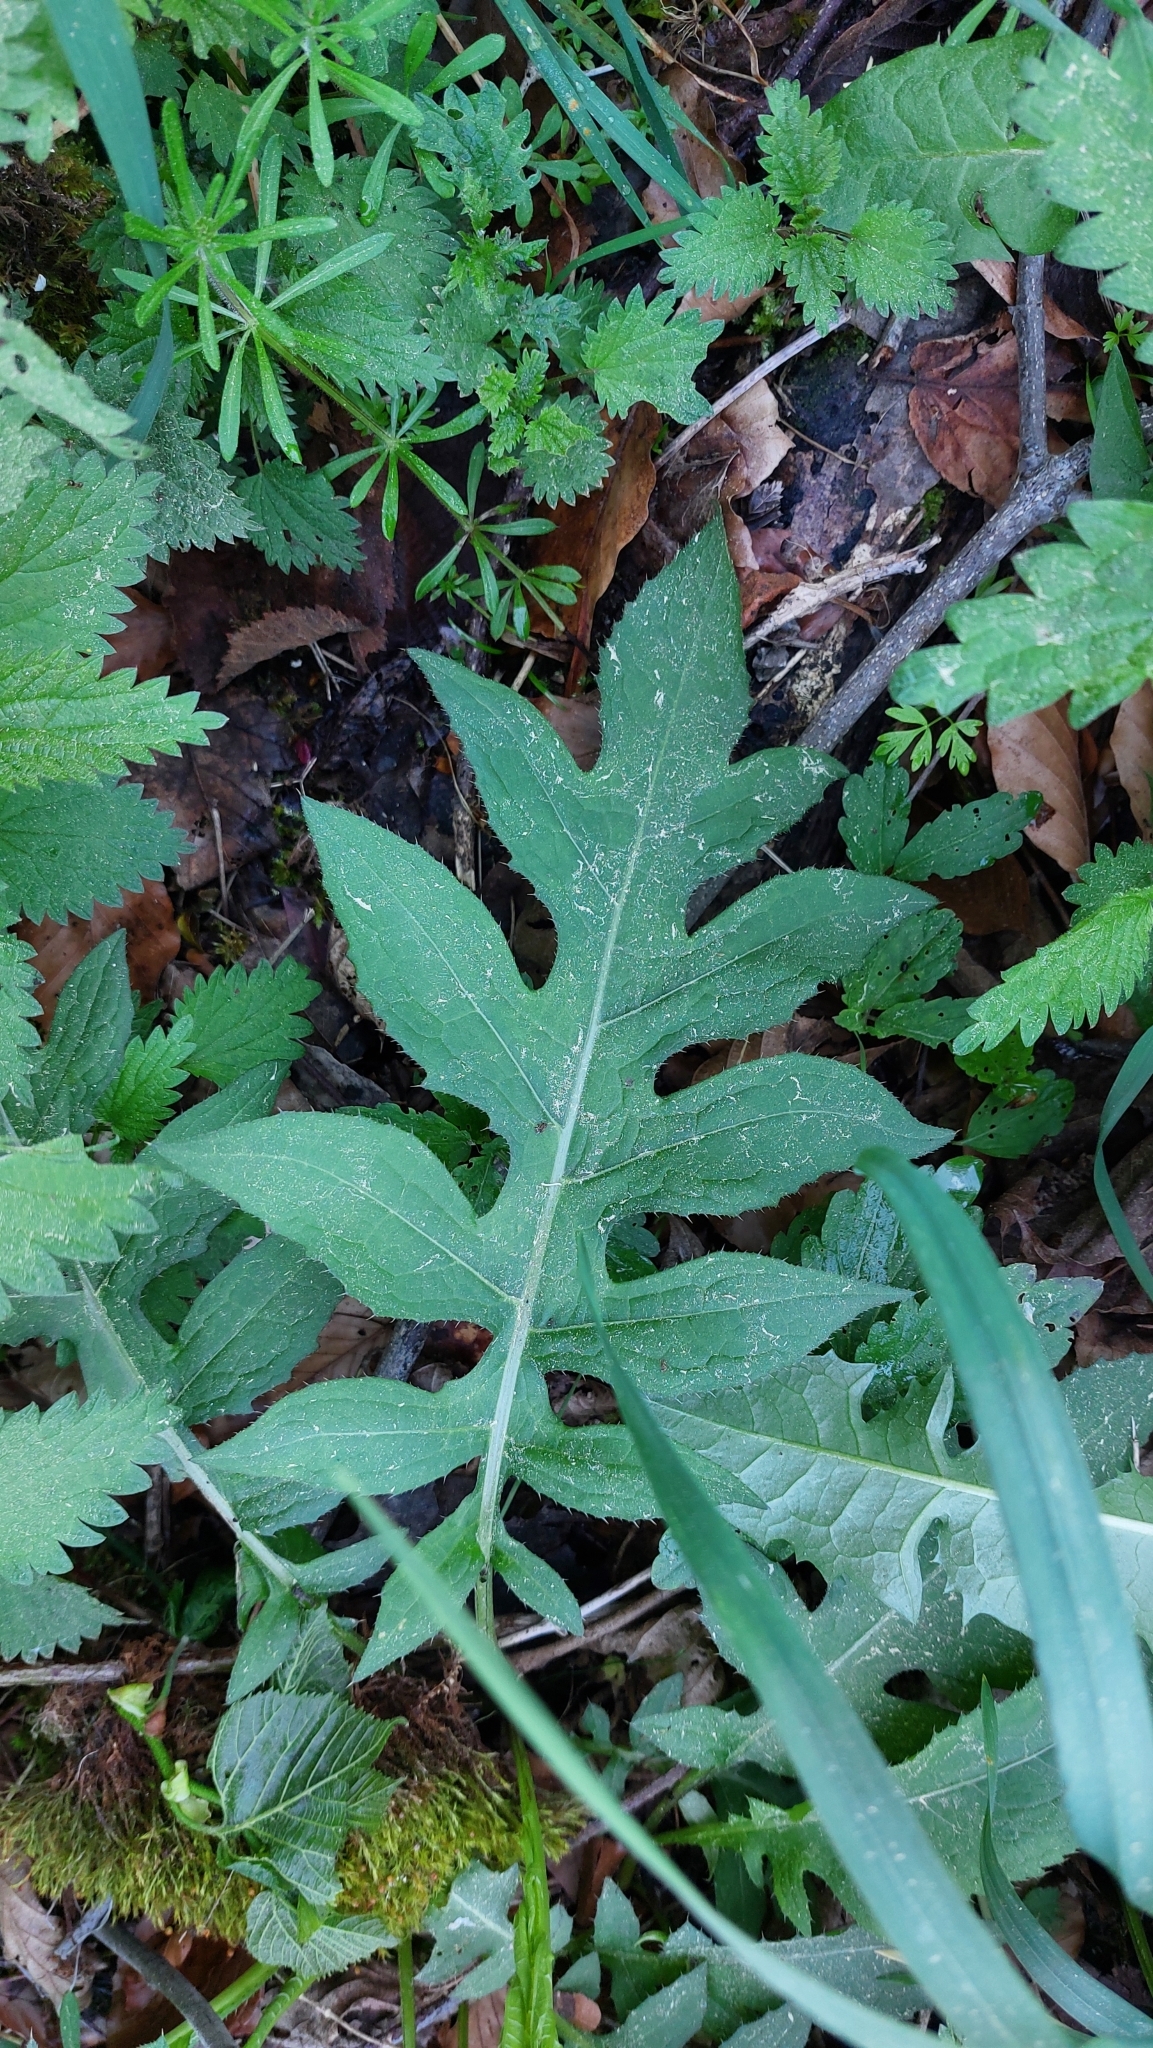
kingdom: Plantae
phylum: Tracheophyta
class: Magnoliopsida
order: Asterales
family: Asteraceae
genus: Cirsium
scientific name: Cirsium oleraceum
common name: Cabbage thistle
